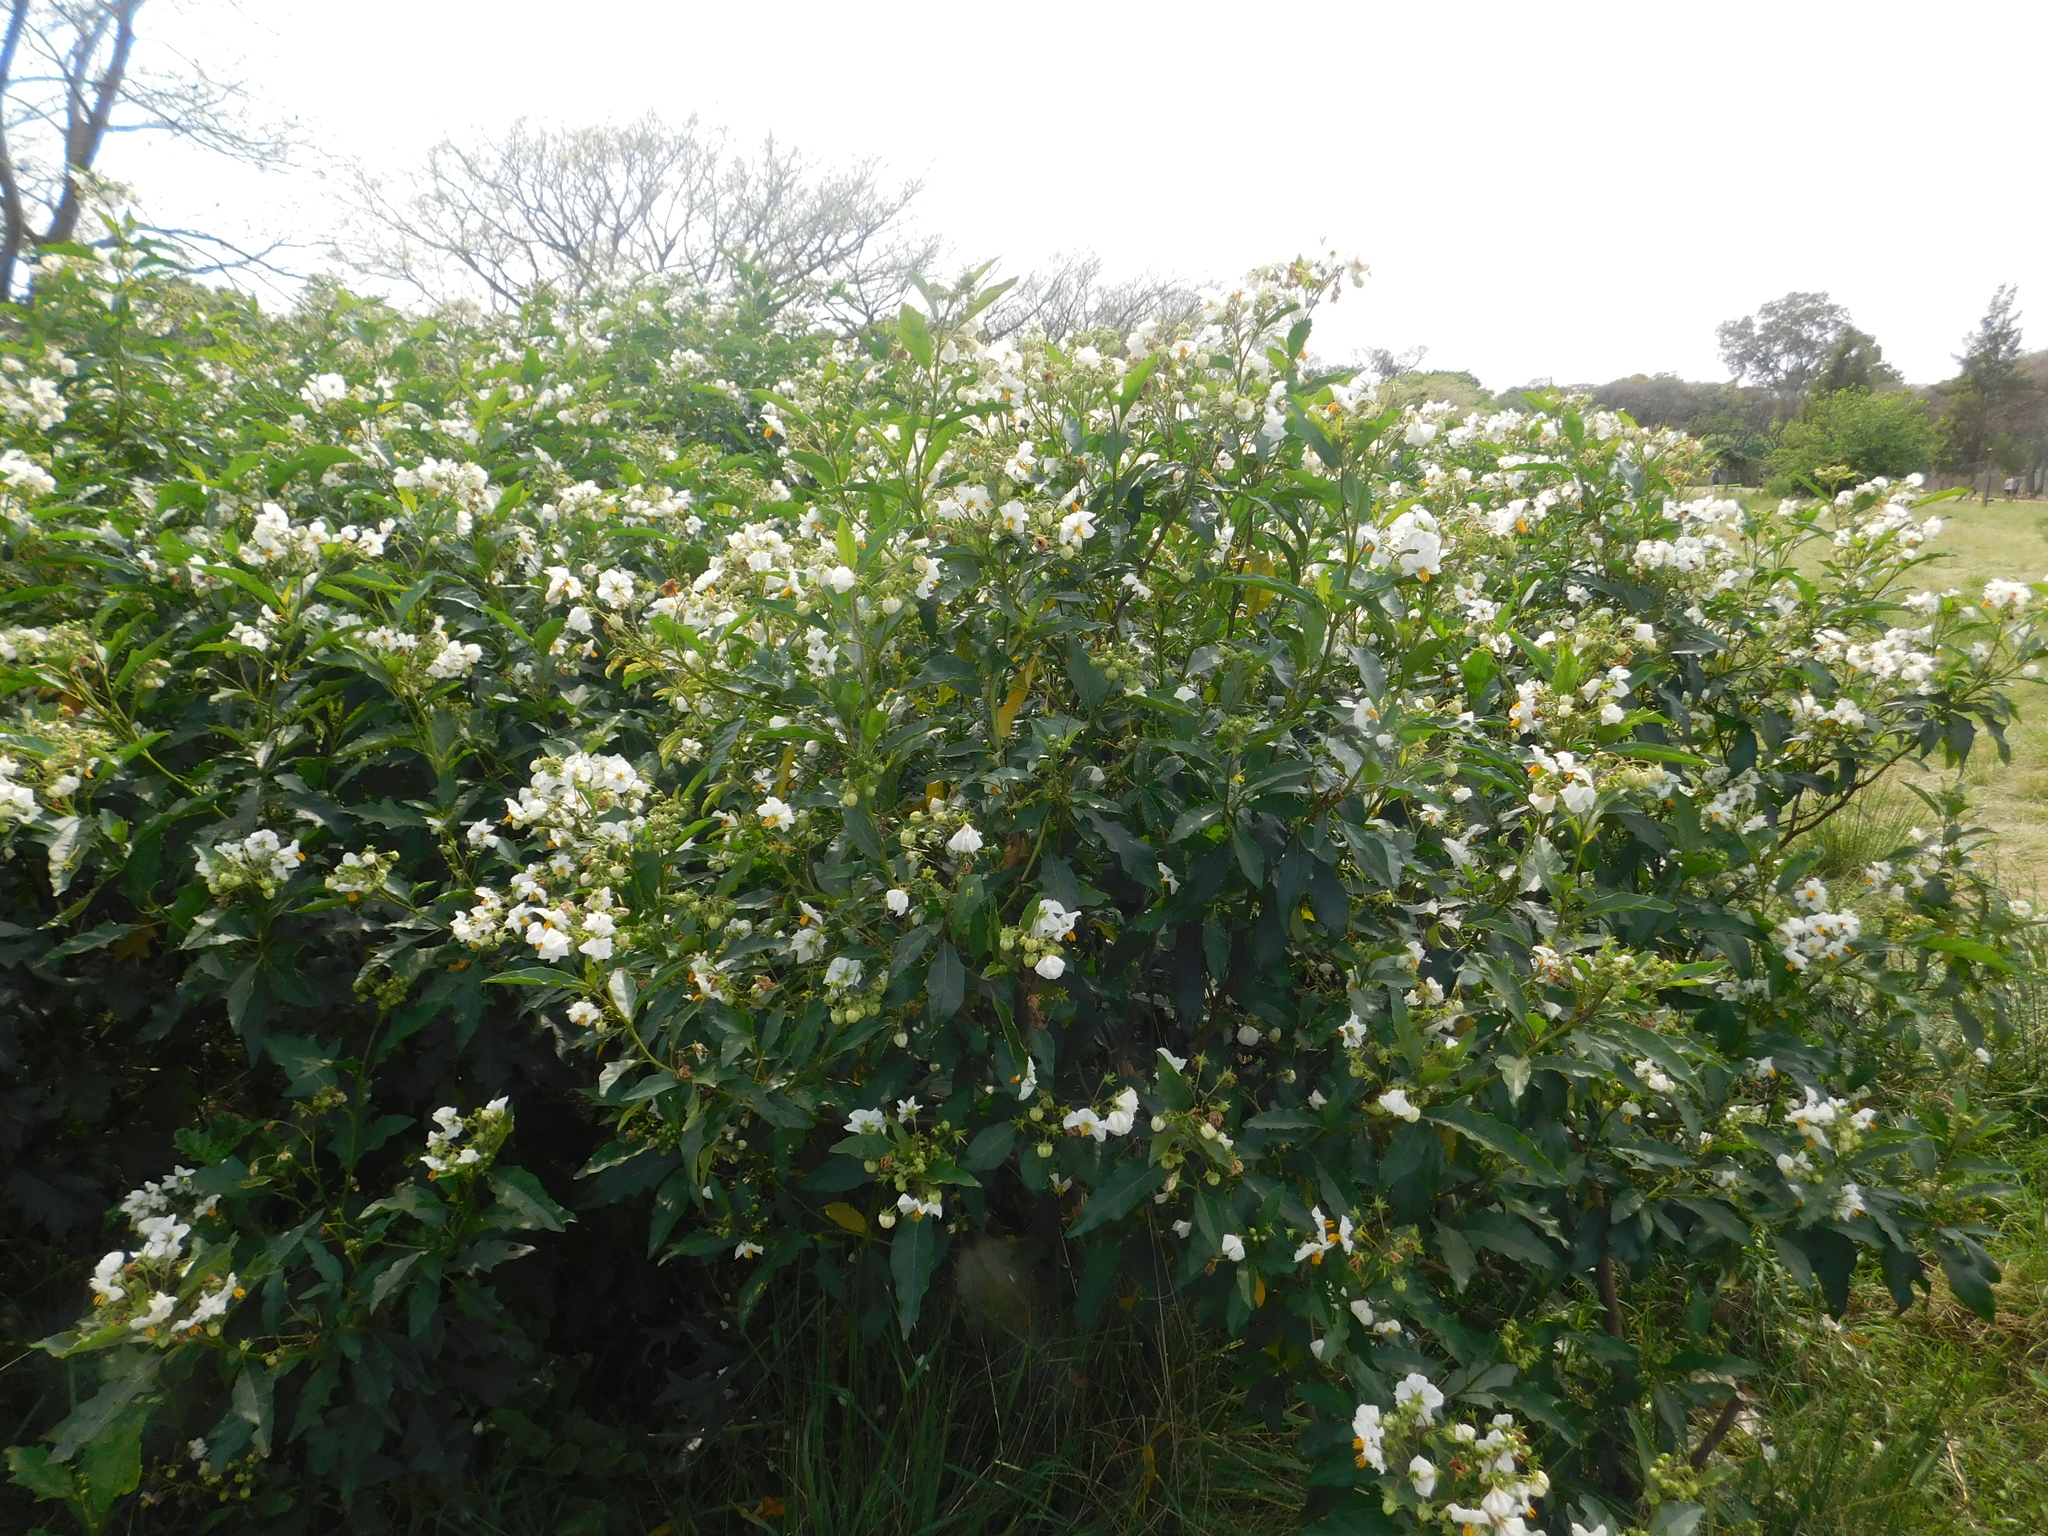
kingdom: Plantae
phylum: Tracheophyta
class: Magnoliopsida
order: Solanales
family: Solanaceae
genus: Solanum
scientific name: Solanum bonariense
